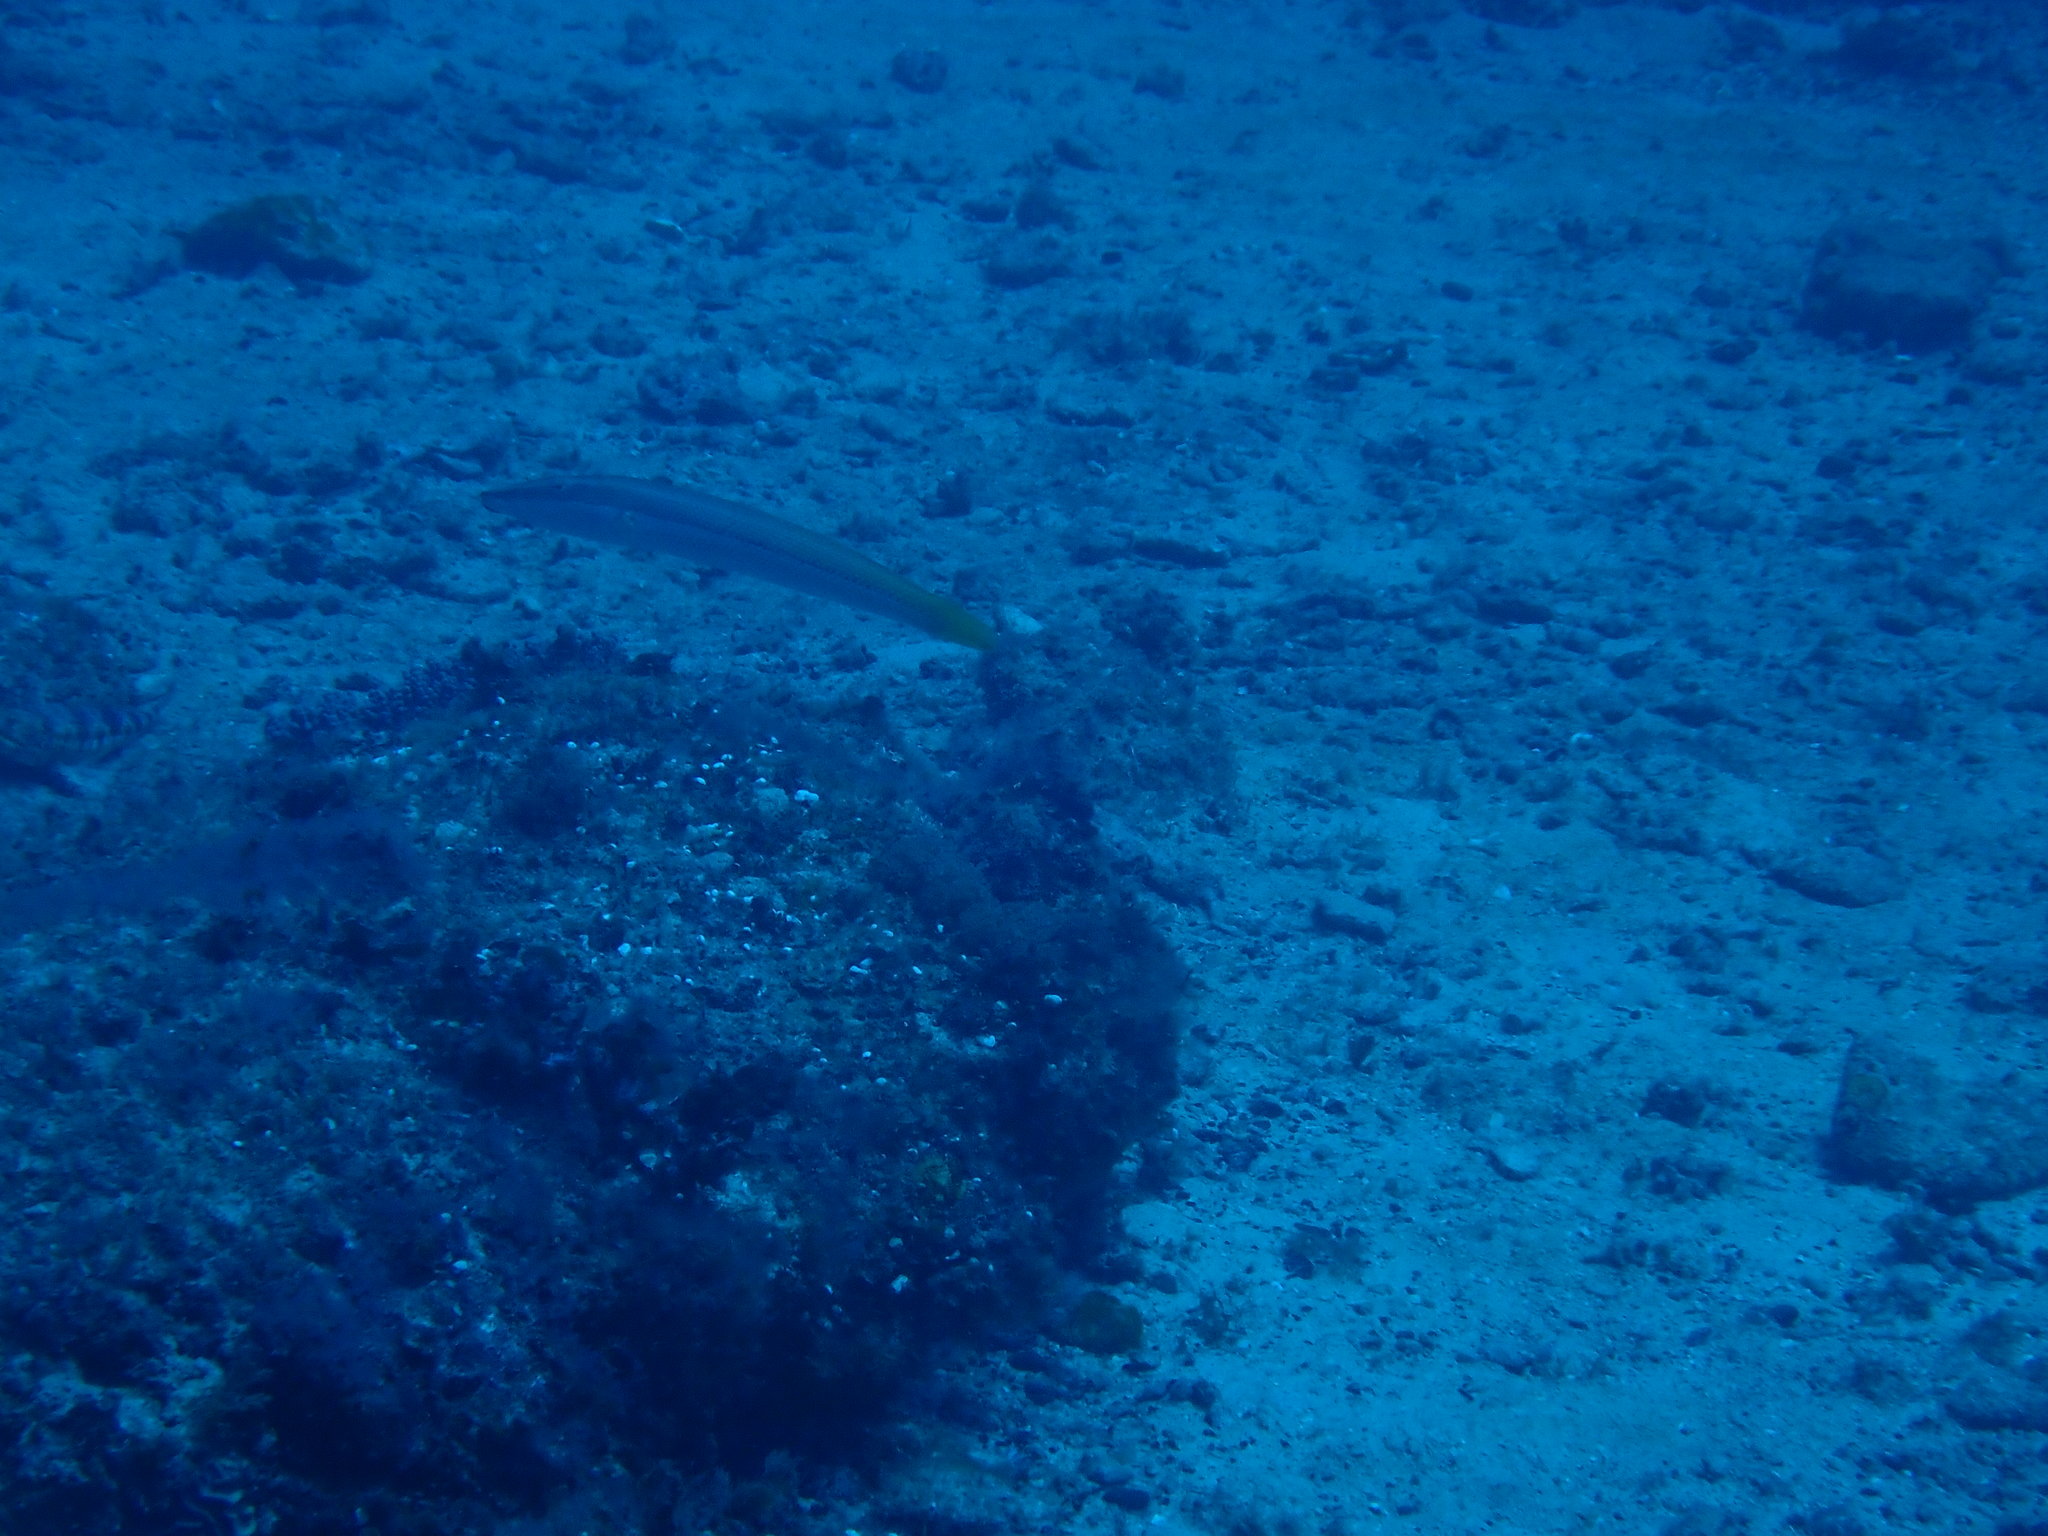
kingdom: Animalia
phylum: Chordata
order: Perciformes
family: Labridae
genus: Cheilio
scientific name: Cheilio inermis
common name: Cigar wrasse
